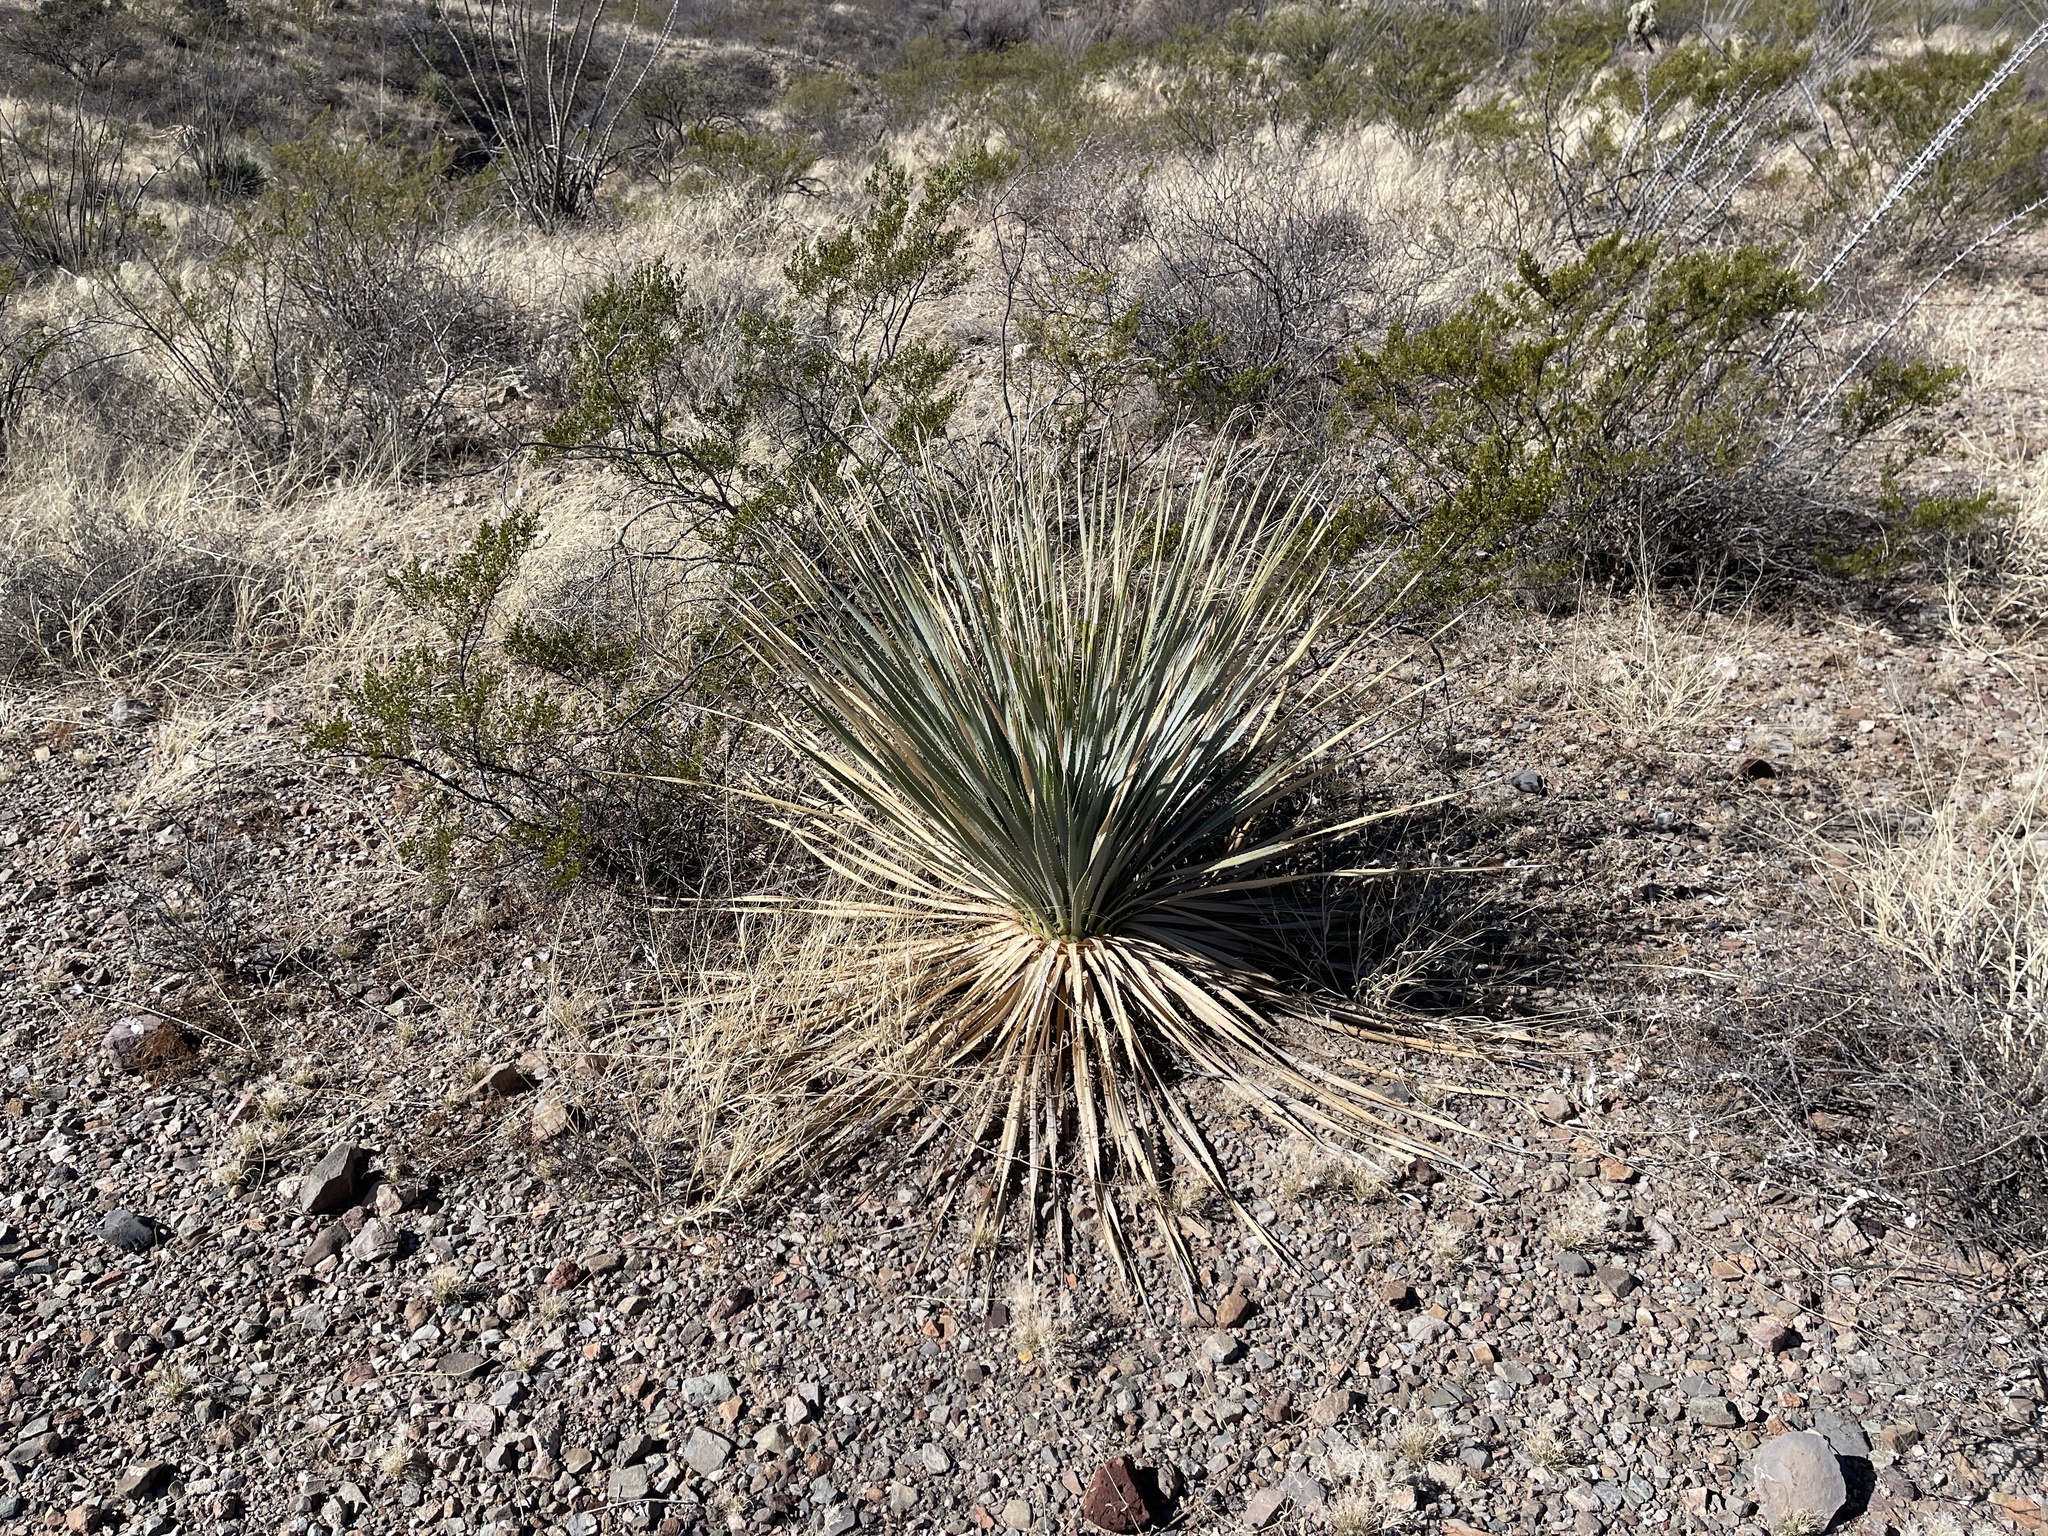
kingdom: Plantae
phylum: Tracheophyta
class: Liliopsida
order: Asparagales
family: Asparagaceae
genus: Dasylirion
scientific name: Dasylirion wheeleri
